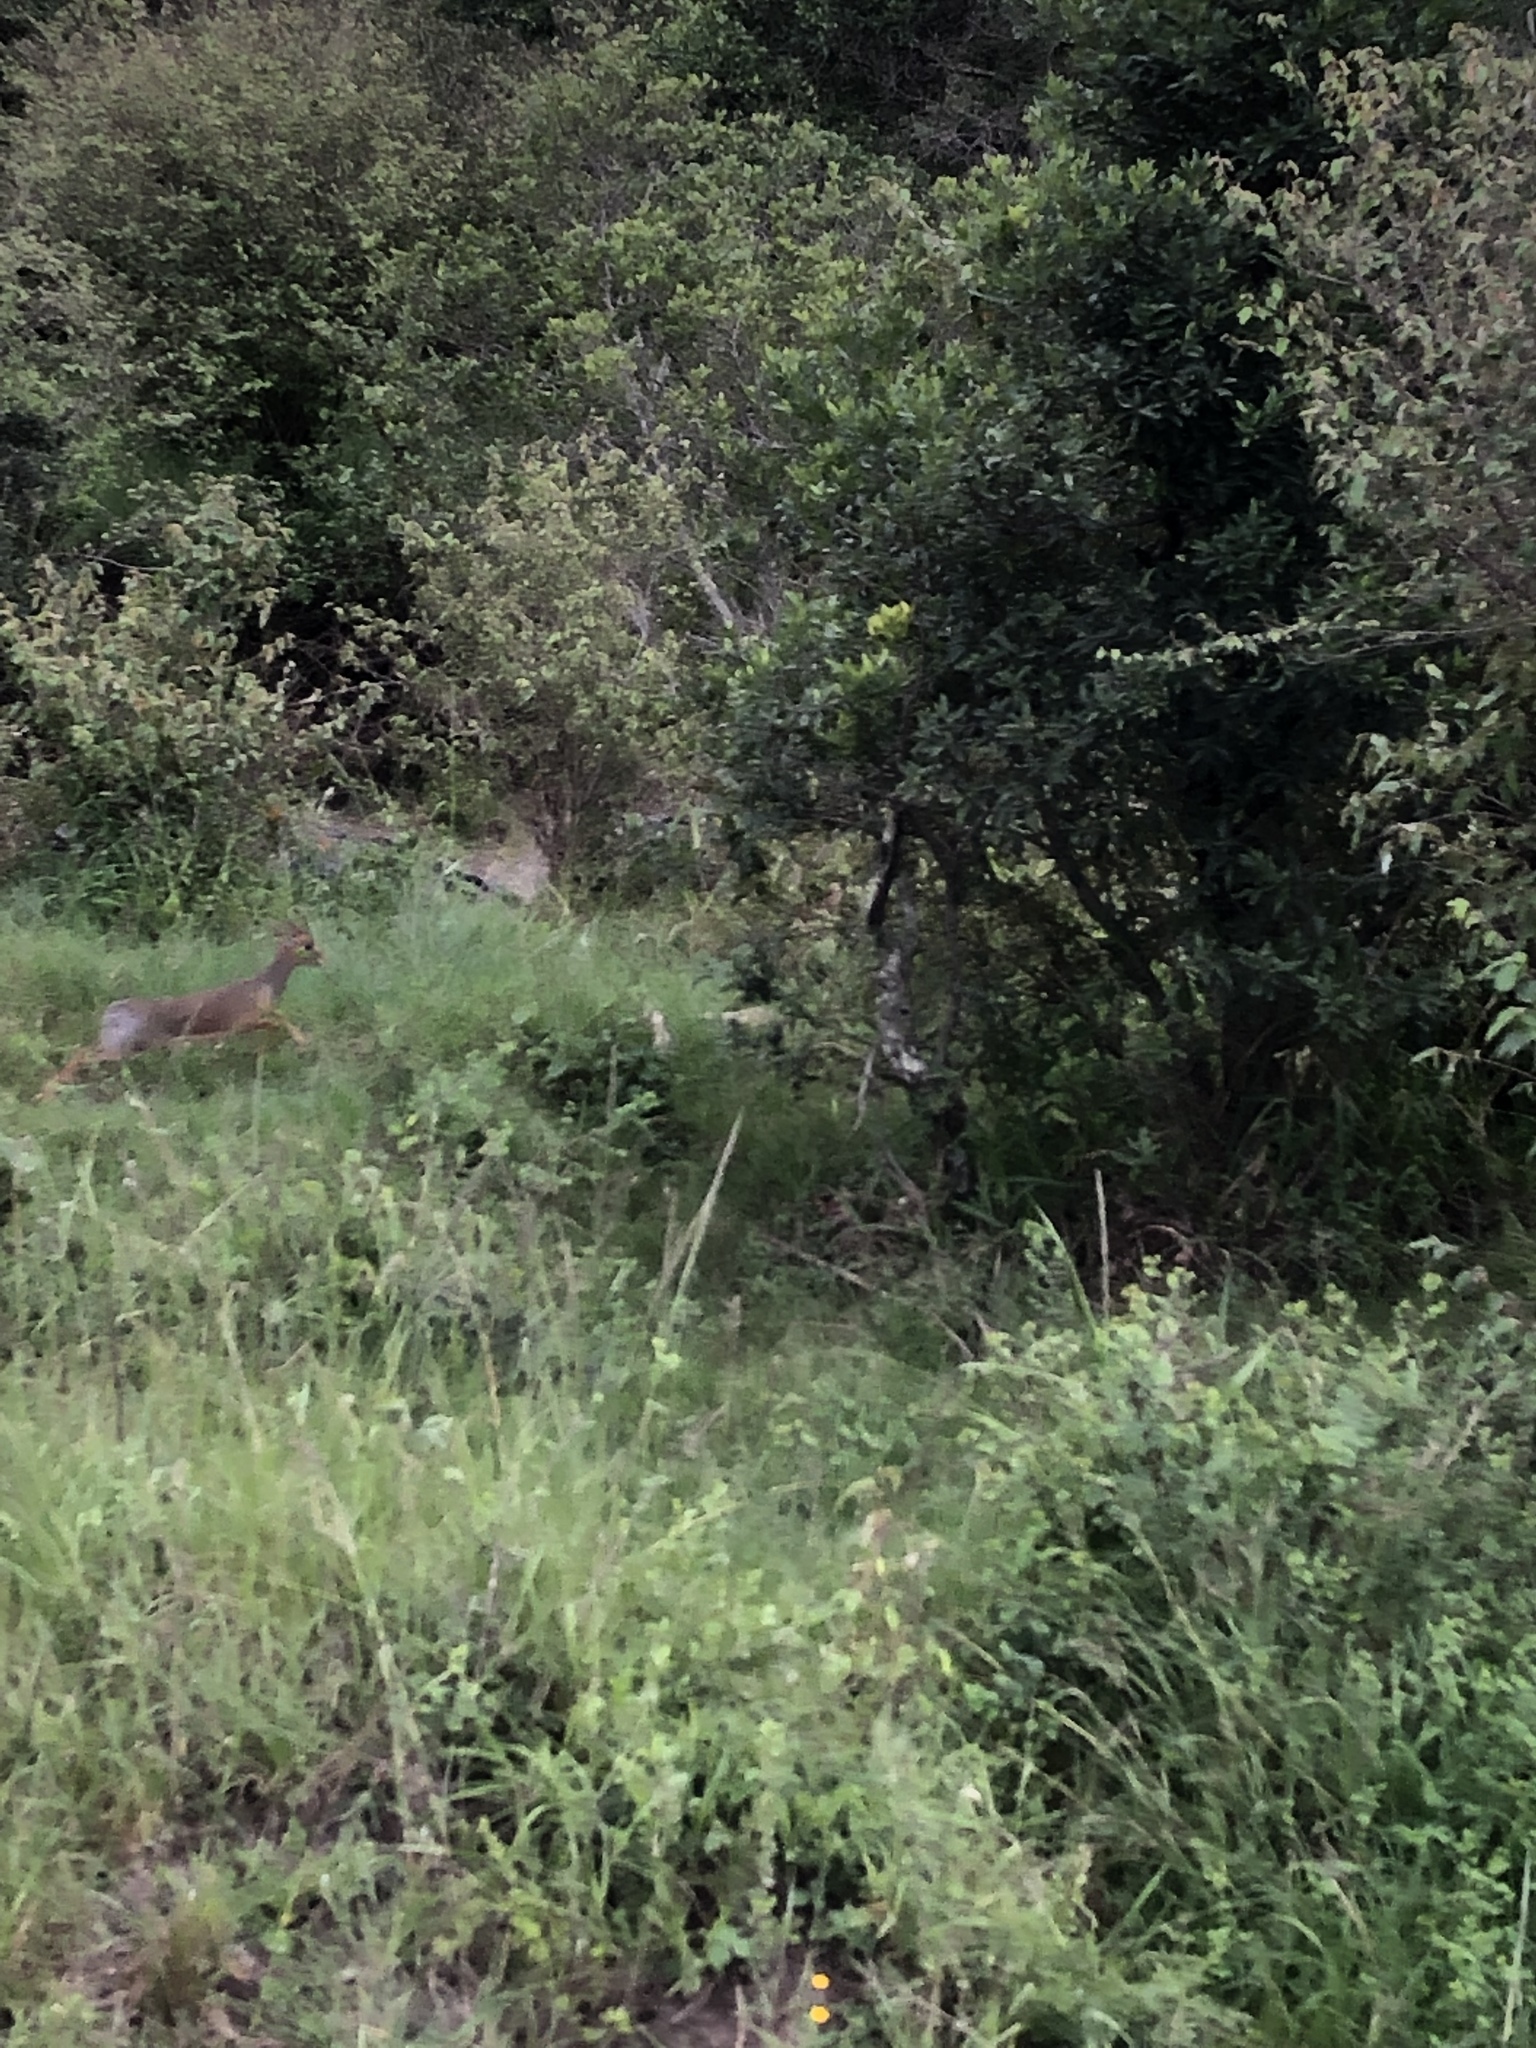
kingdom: Animalia
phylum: Chordata
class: Mammalia
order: Artiodactyla
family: Bovidae
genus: Madoqua
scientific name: Madoqua
